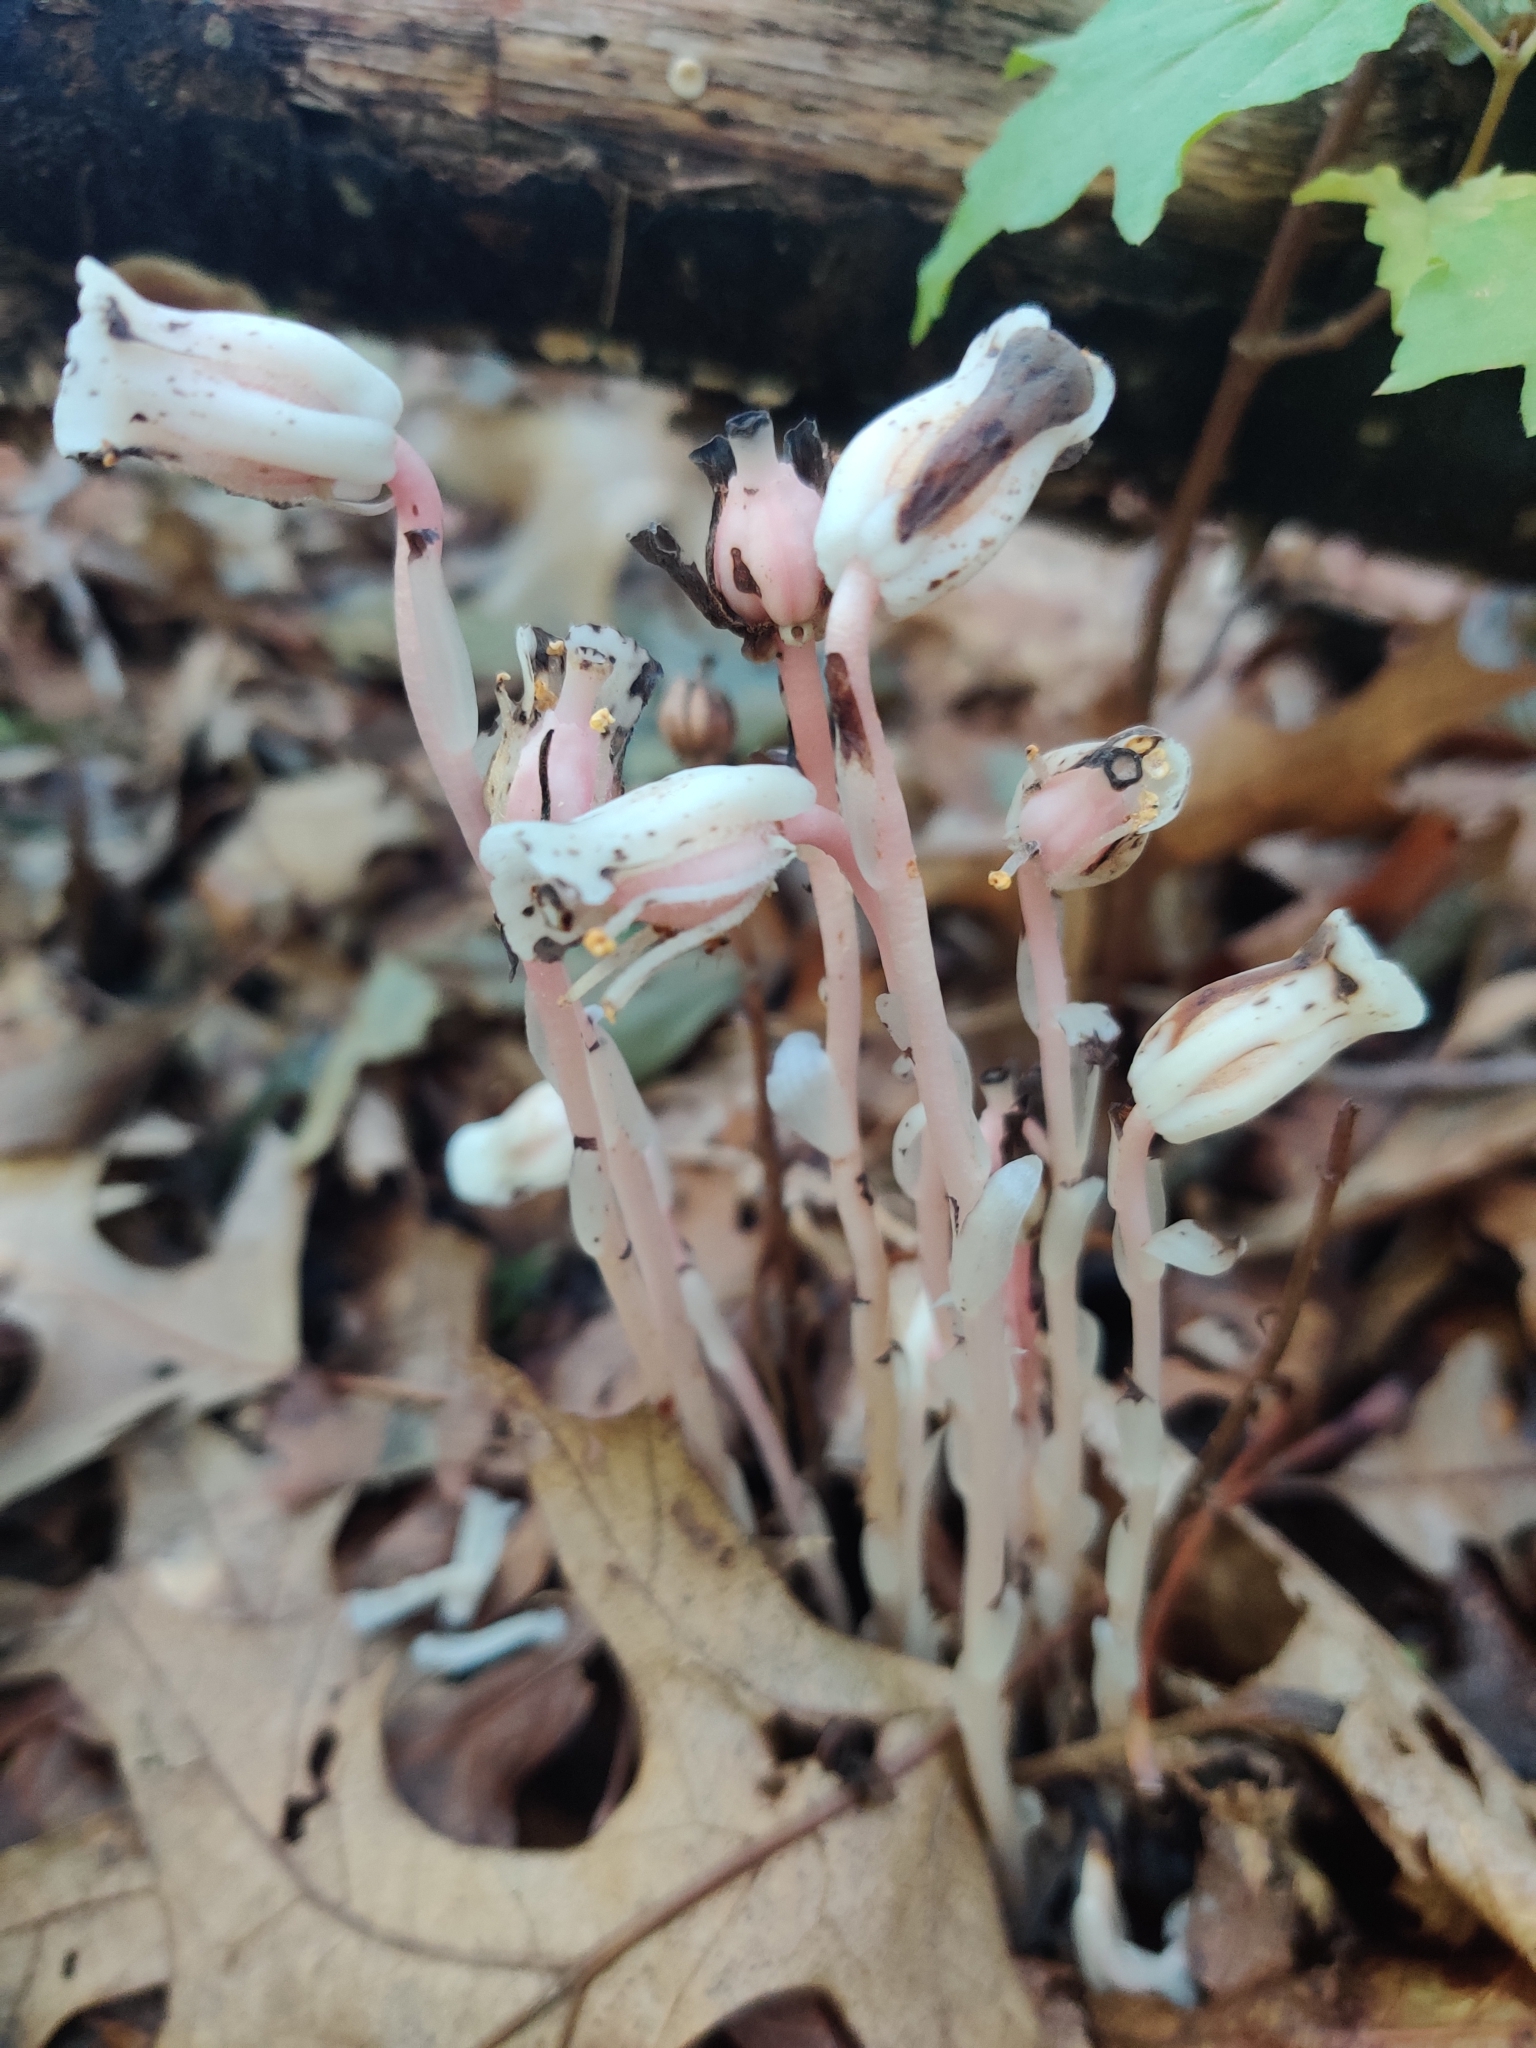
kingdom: Plantae
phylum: Tracheophyta
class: Magnoliopsida
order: Ericales
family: Ericaceae
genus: Monotropa
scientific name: Monotropa uniflora
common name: Convulsion root
